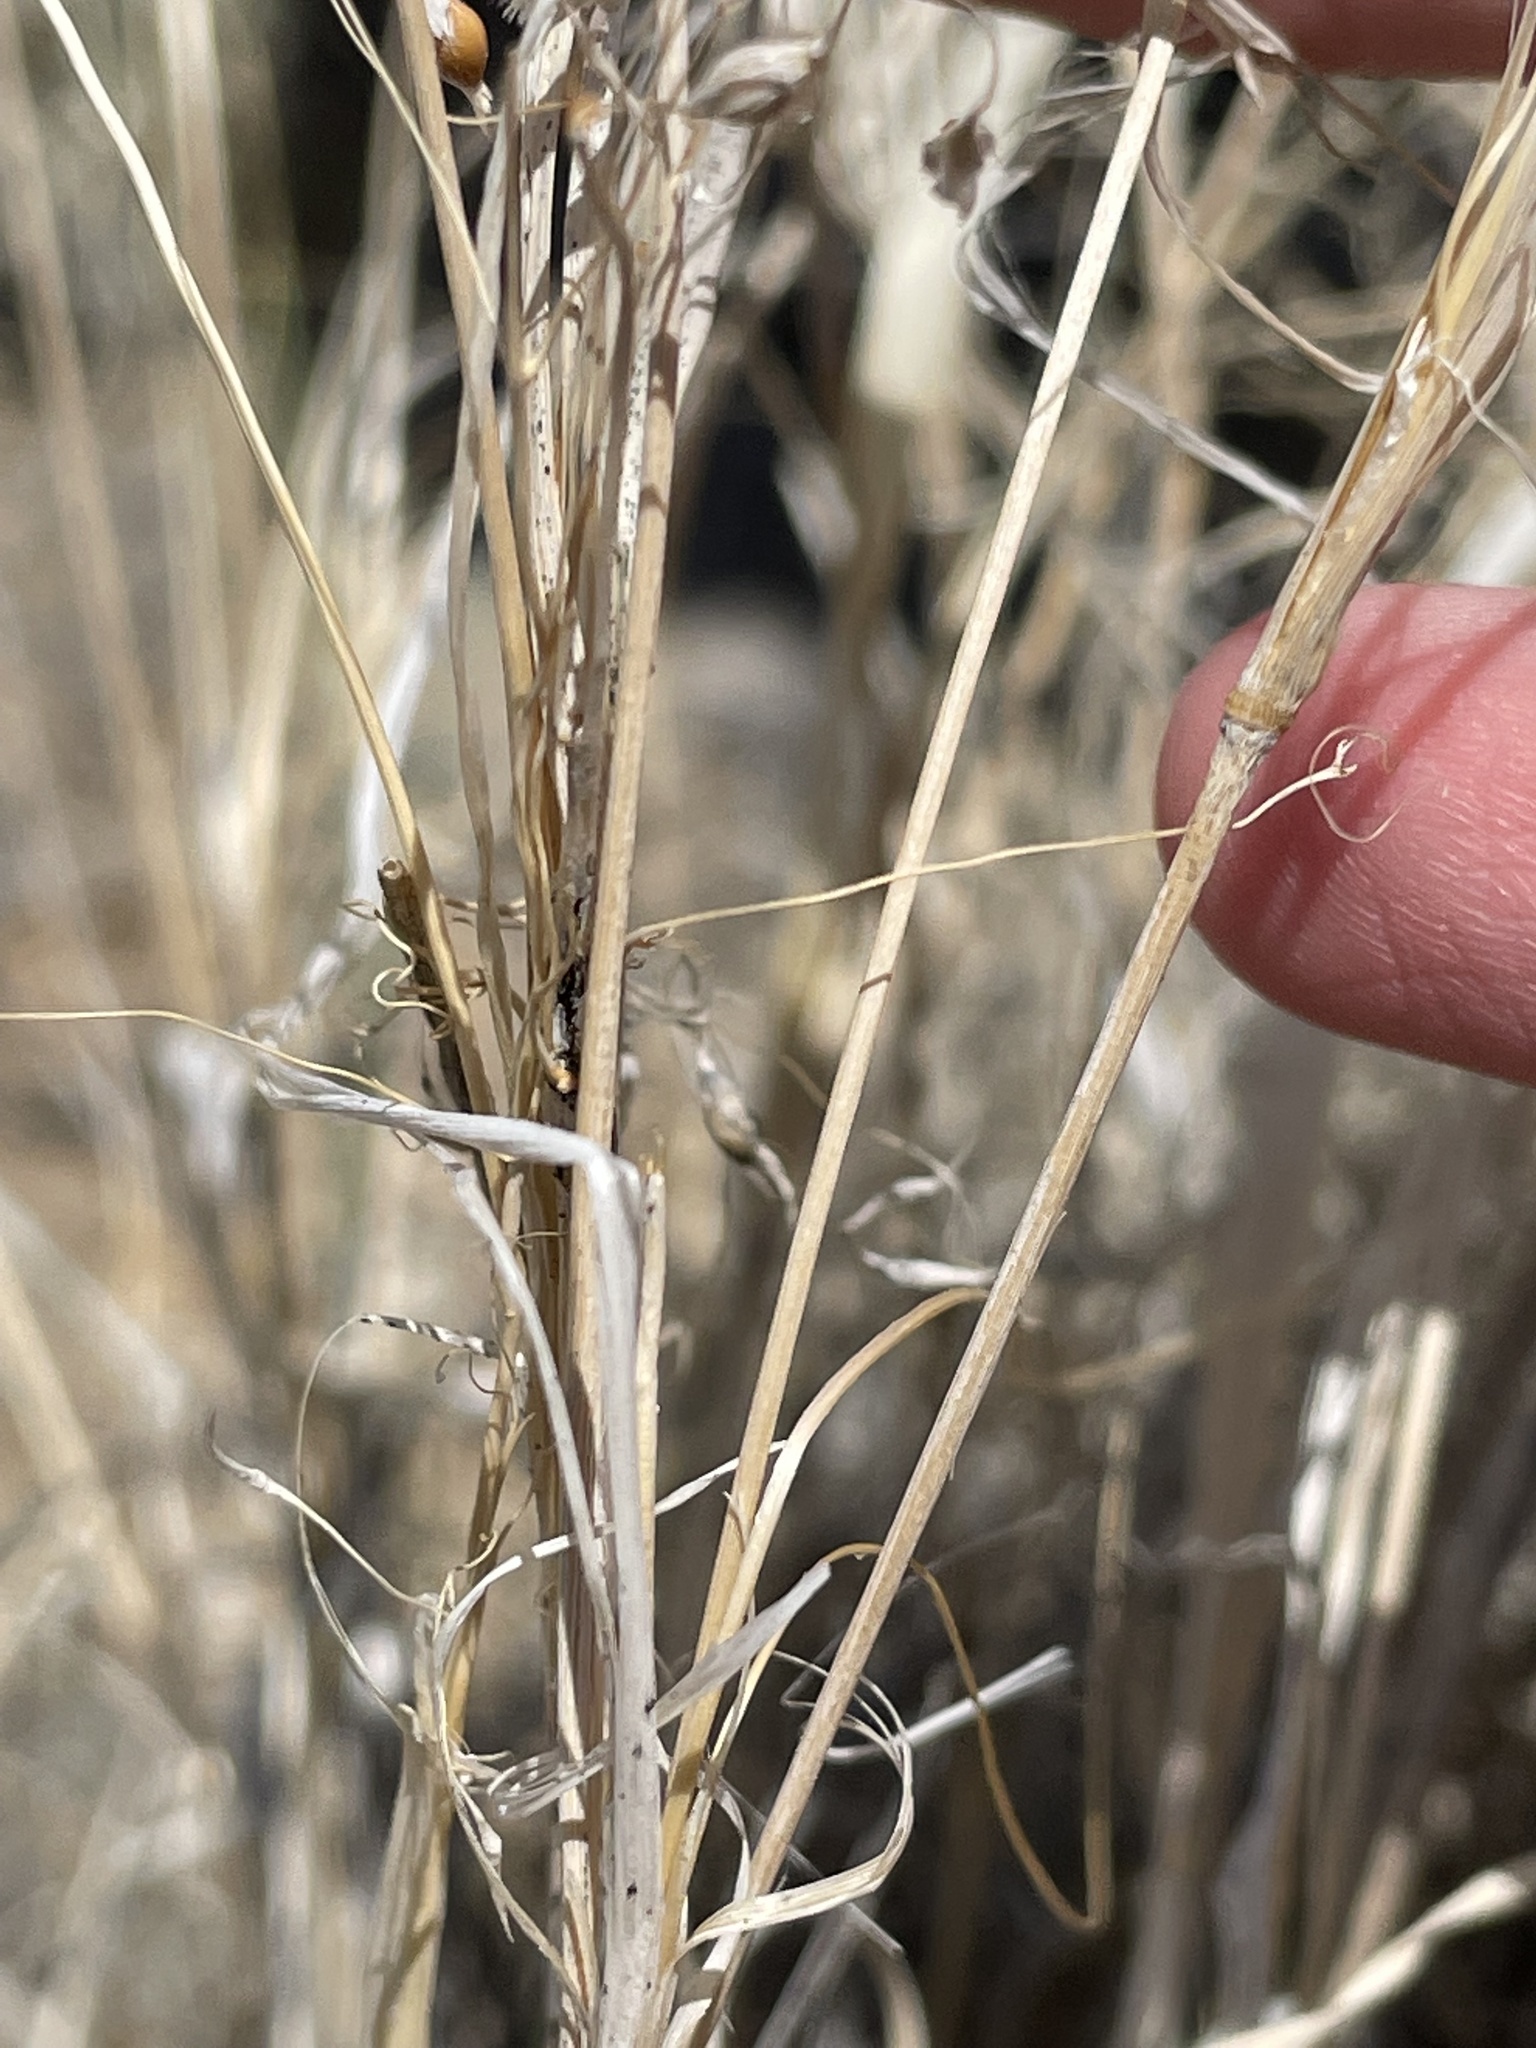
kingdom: Plantae
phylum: Tracheophyta
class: Liliopsida
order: Poales
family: Poaceae
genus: Eriocoma
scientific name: Eriocoma hymenoides
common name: Indian mountain ricegrass
